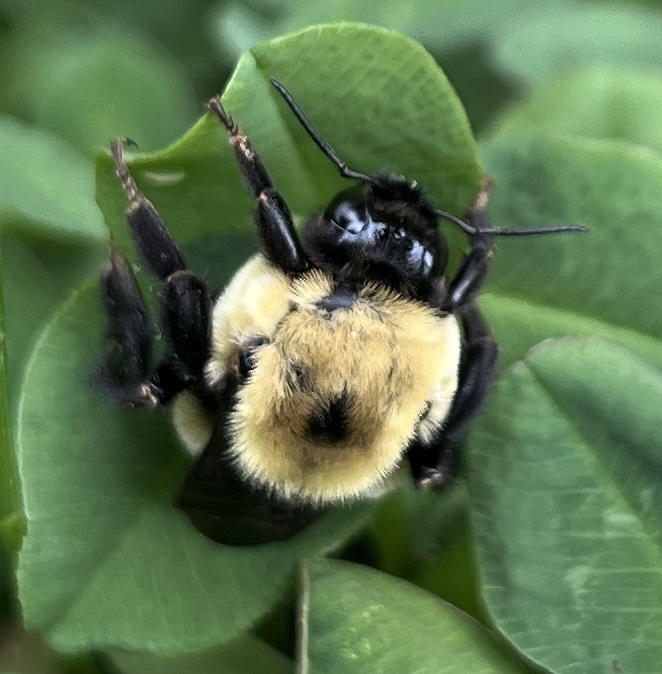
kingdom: Animalia
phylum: Arthropoda
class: Insecta
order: Hymenoptera
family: Apidae
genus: Bombus
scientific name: Bombus griseocollis
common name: Brown-belted bumble bee
